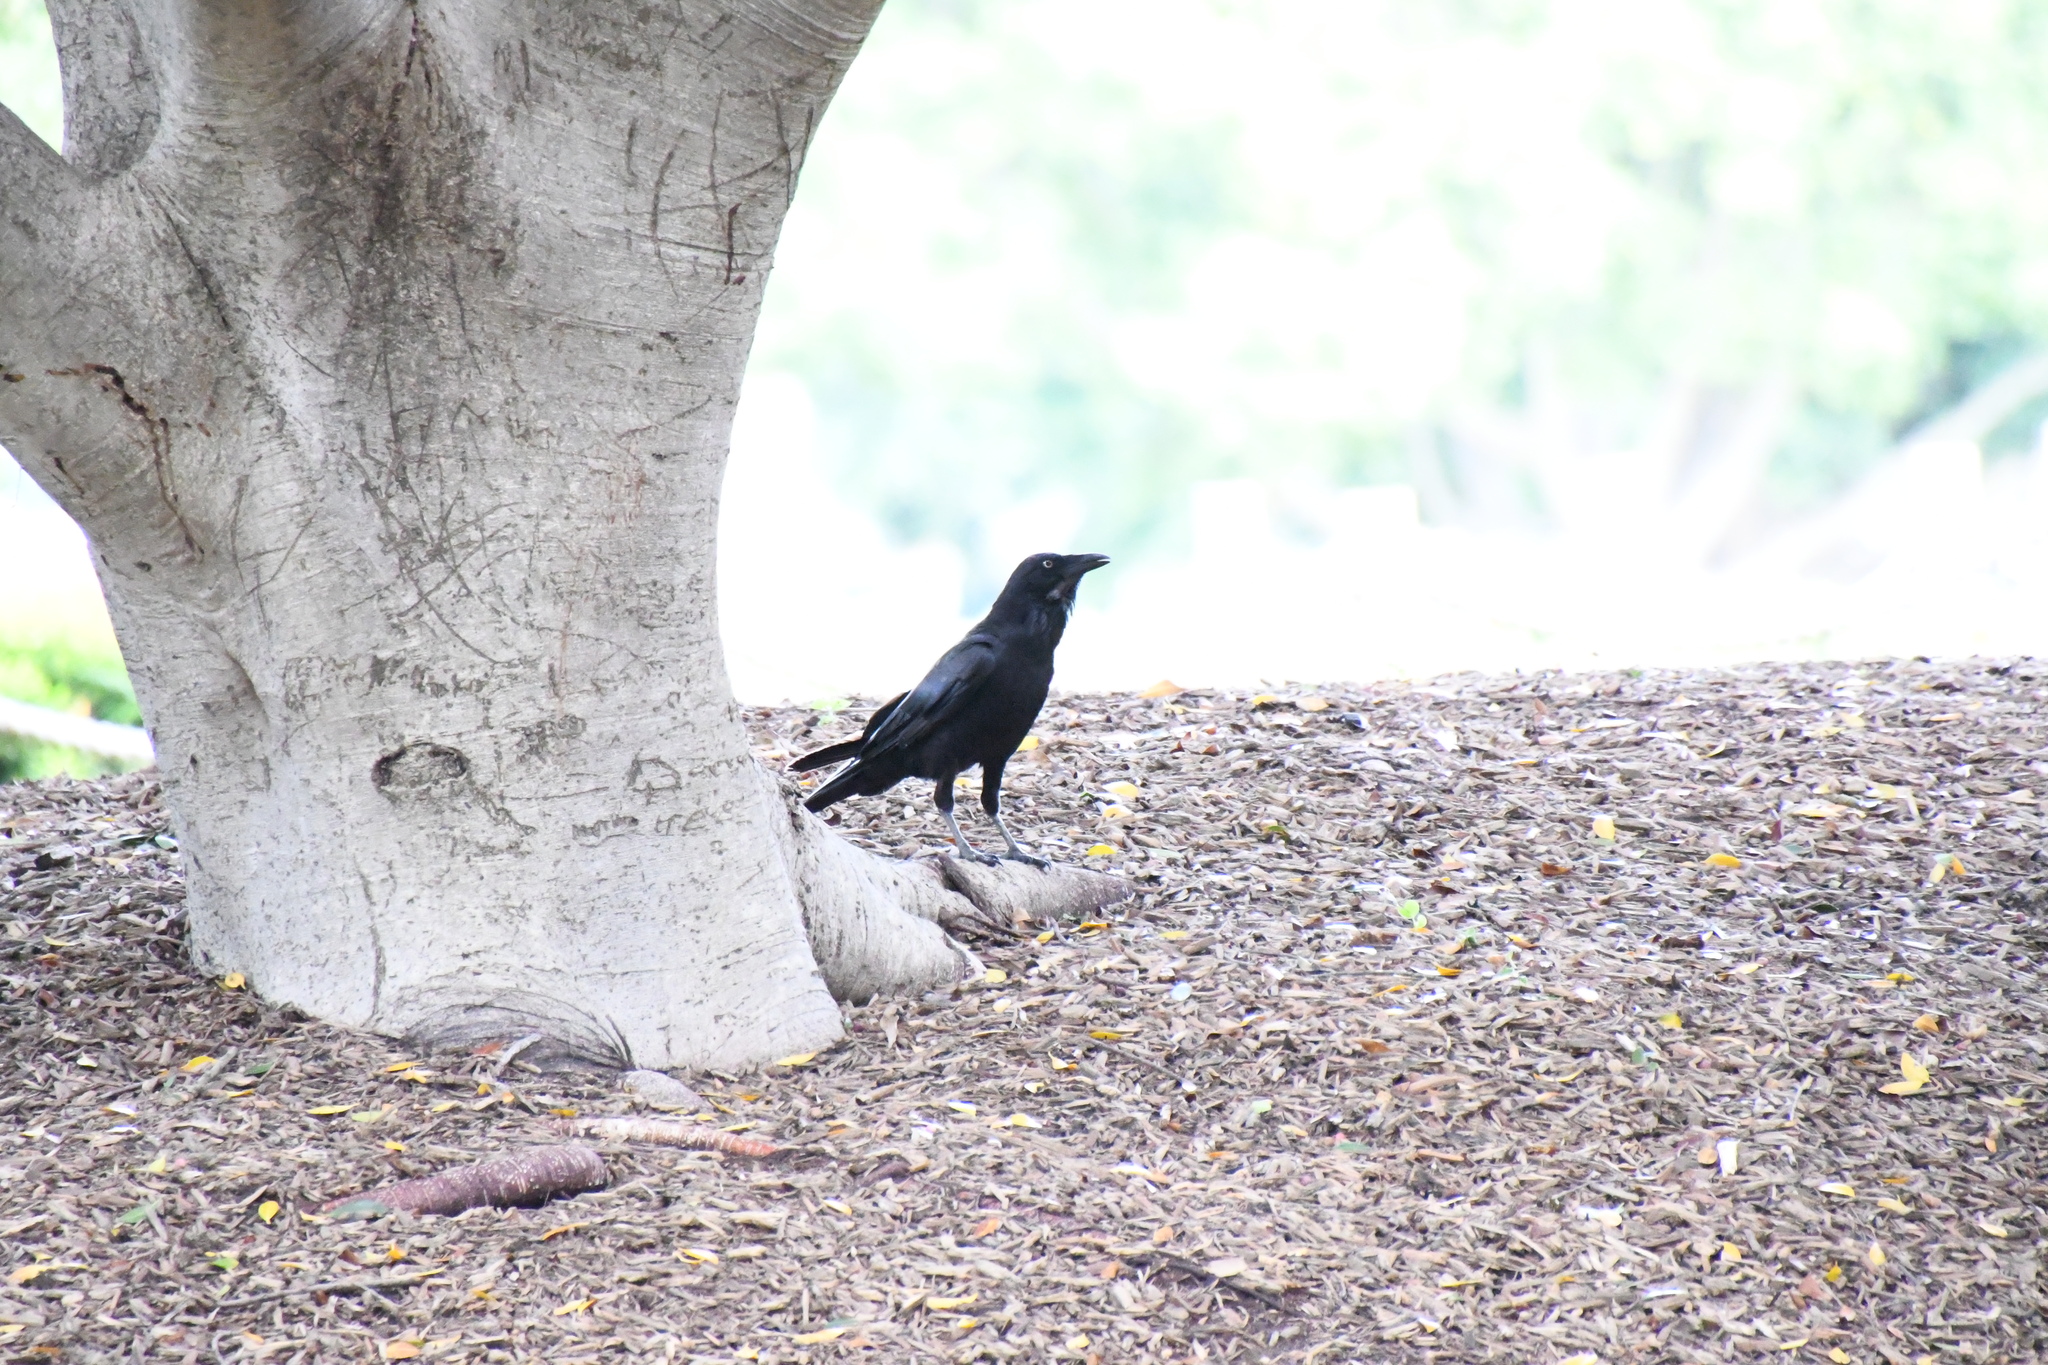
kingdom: Animalia
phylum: Chordata
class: Aves
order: Passeriformes
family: Corvidae
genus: Corvus
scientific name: Corvus coronoides
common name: Australian raven
